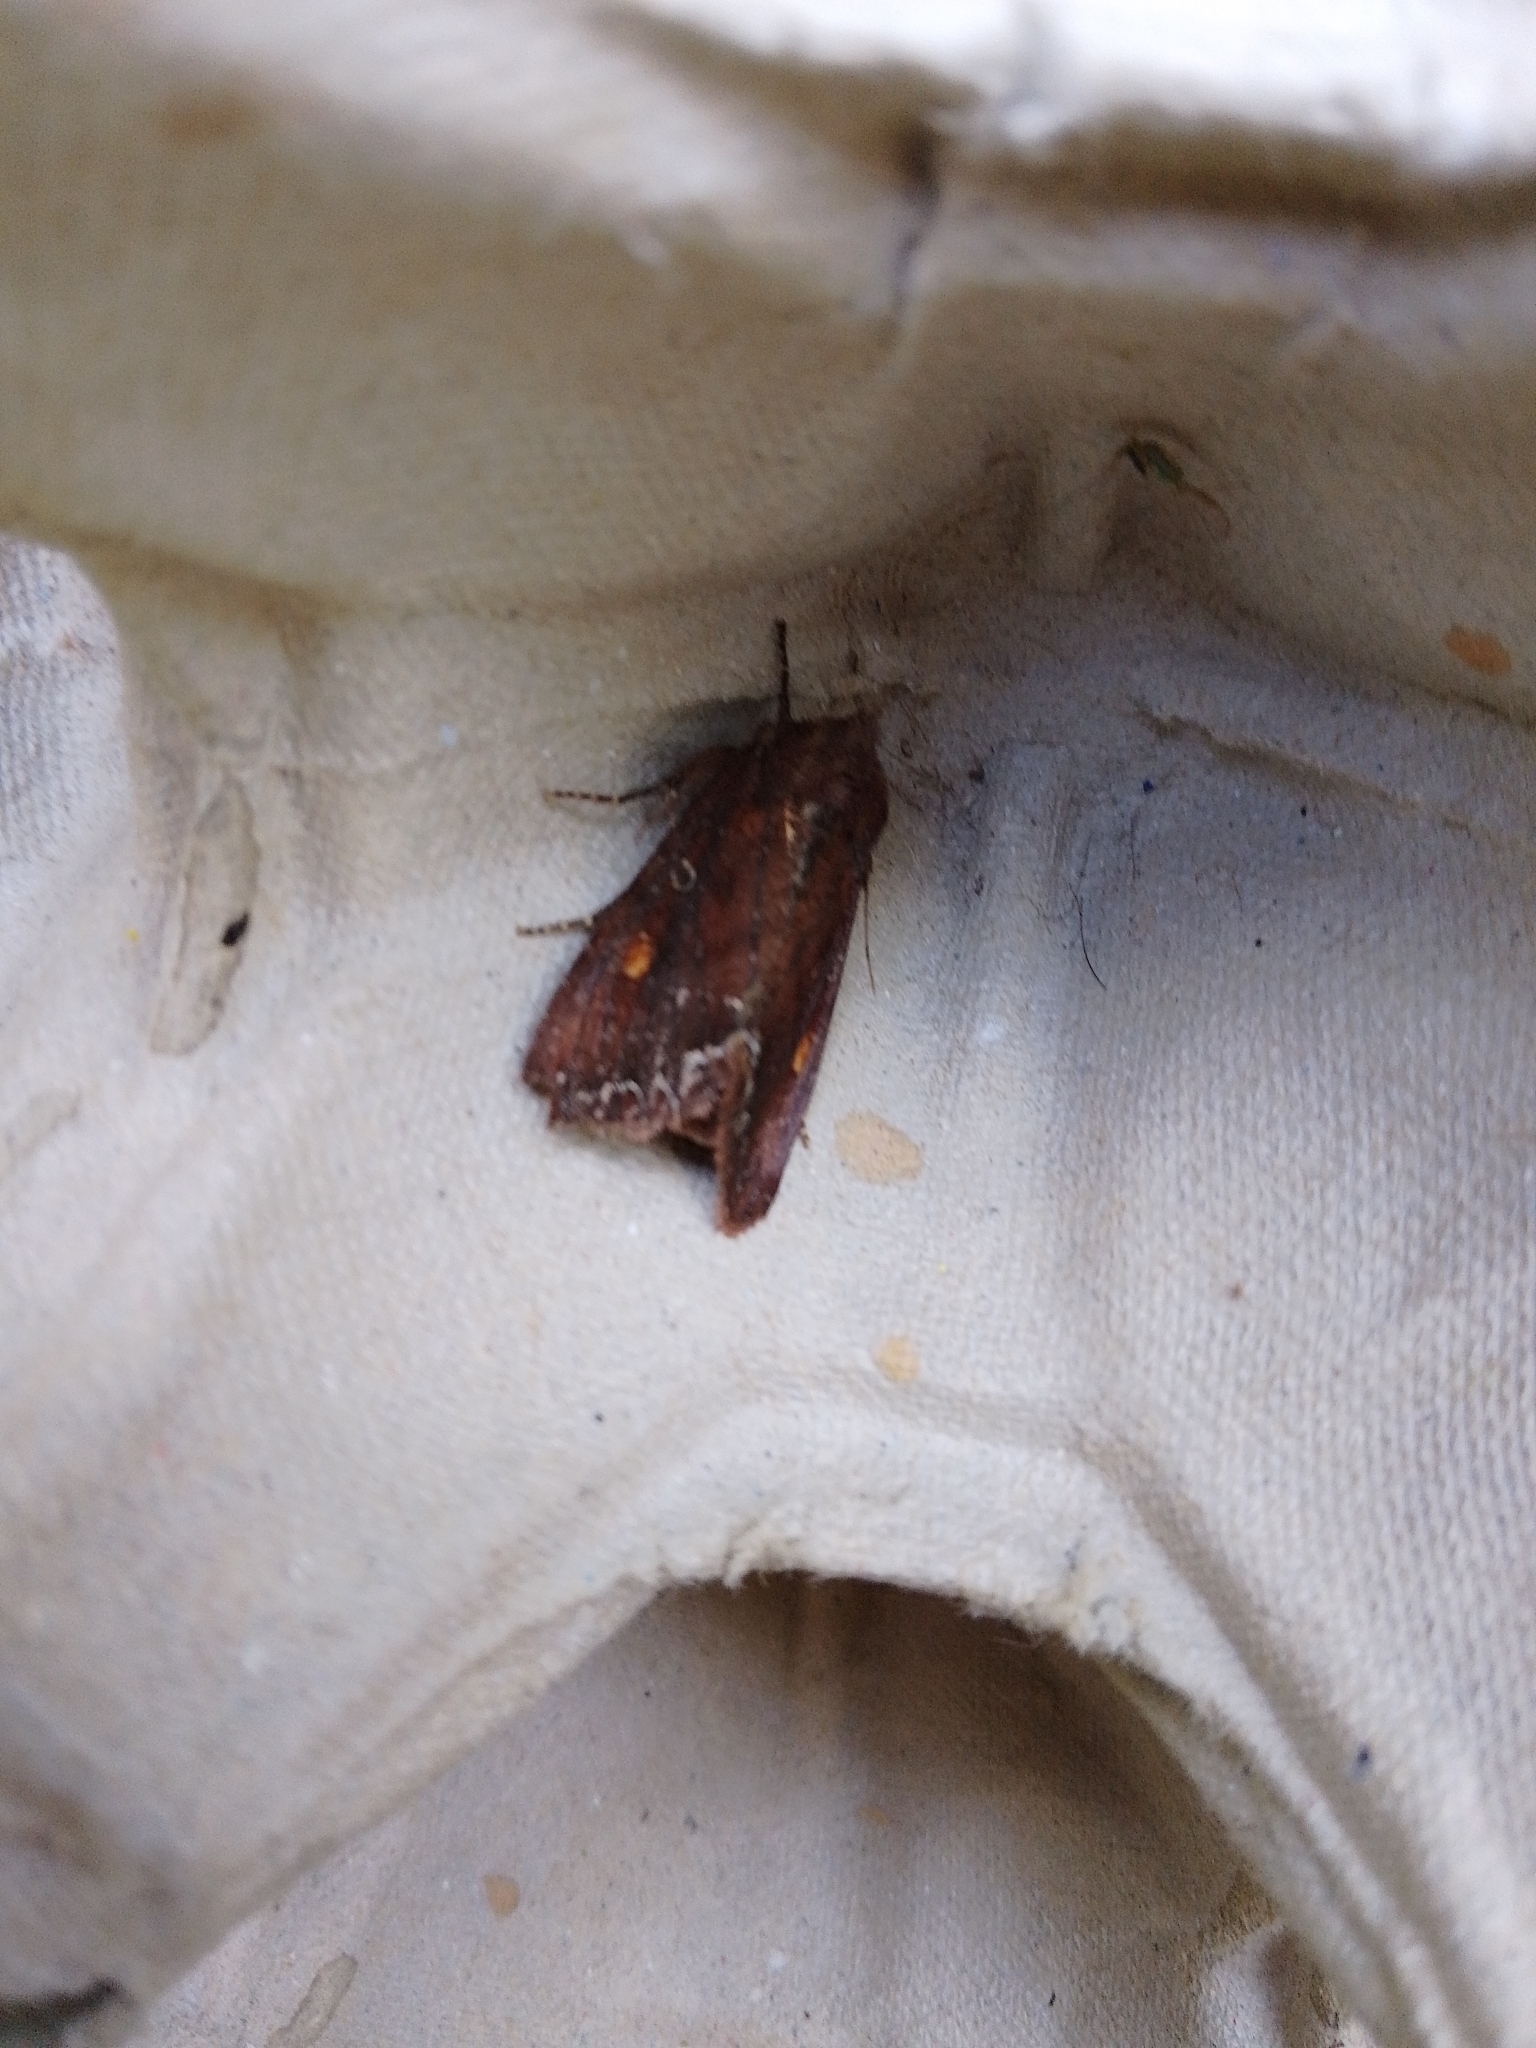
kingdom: Animalia
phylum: Arthropoda
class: Insecta
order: Lepidoptera
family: Noctuidae
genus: Lacanobia
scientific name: Lacanobia oleracea
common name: Bright-line brown-eye
